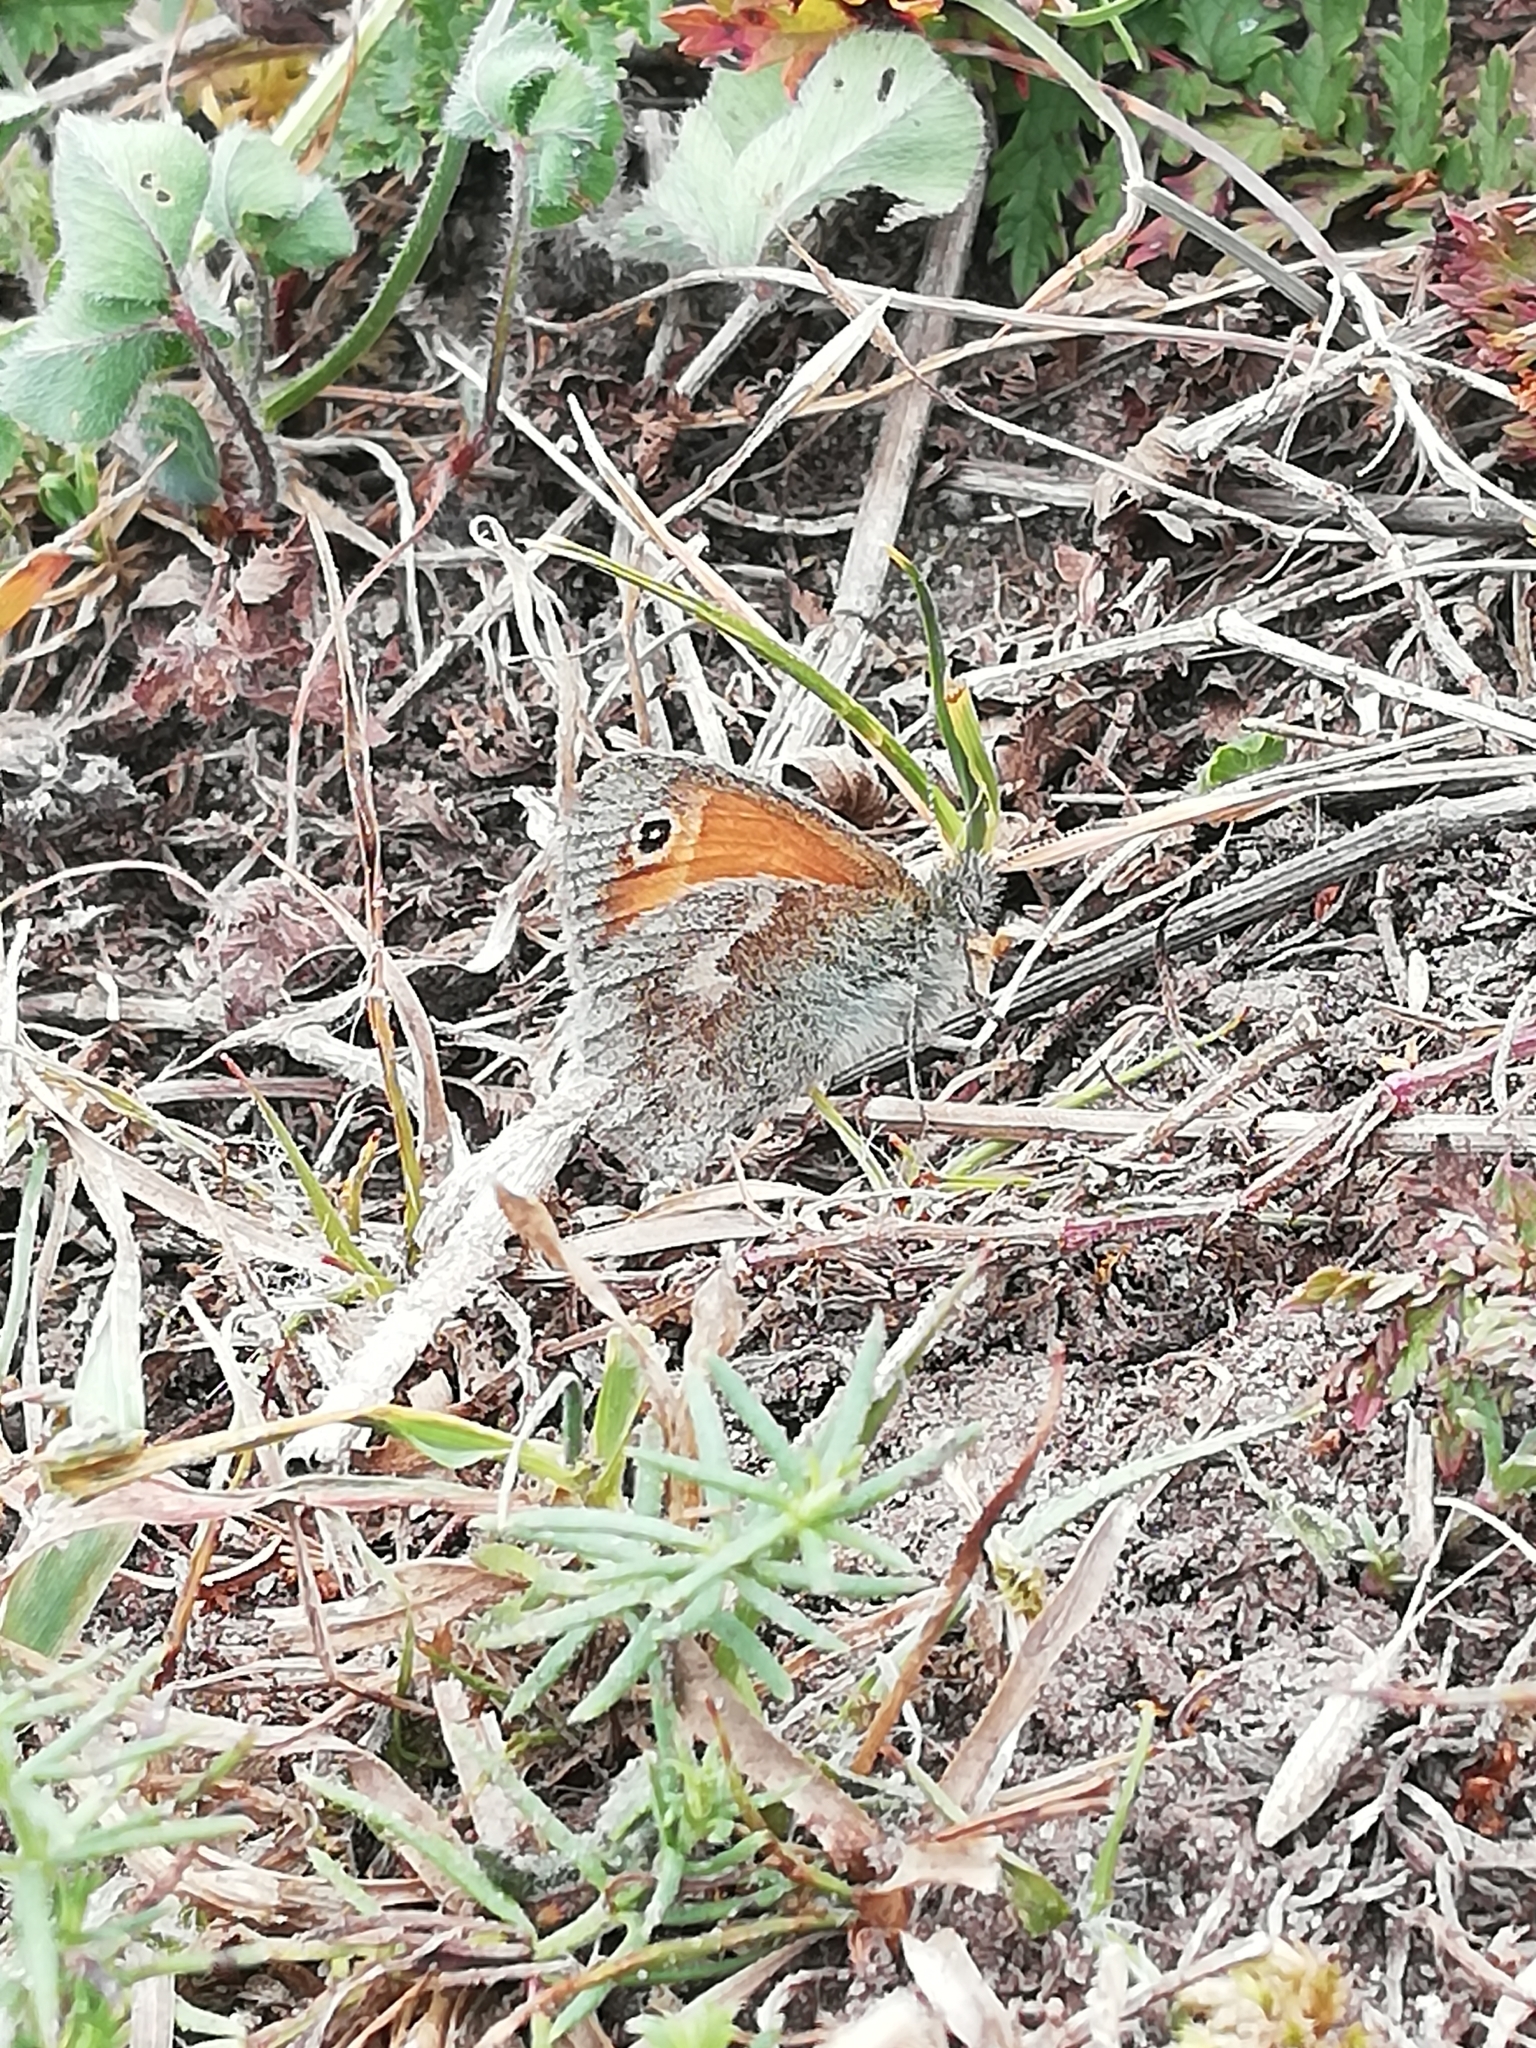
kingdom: Animalia
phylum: Arthropoda
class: Insecta
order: Lepidoptera
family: Nymphalidae
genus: Coenonympha
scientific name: Coenonympha pamphilus
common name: Small heath
